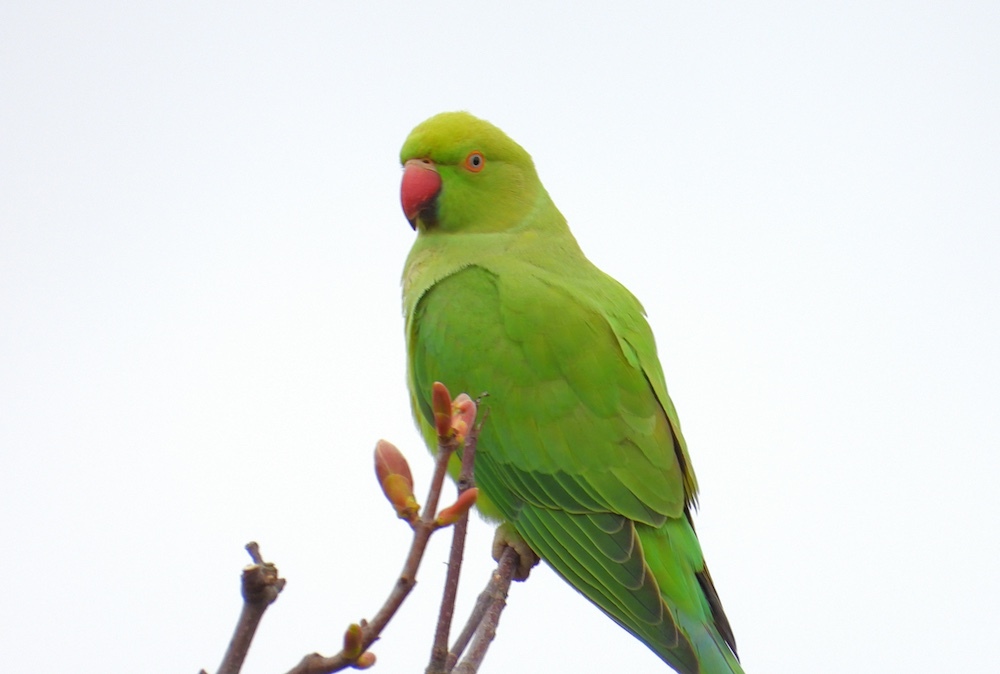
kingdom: Animalia
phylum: Chordata
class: Aves
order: Psittaciformes
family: Psittacidae
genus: Psittacula
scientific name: Psittacula krameri
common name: Rose-ringed parakeet
